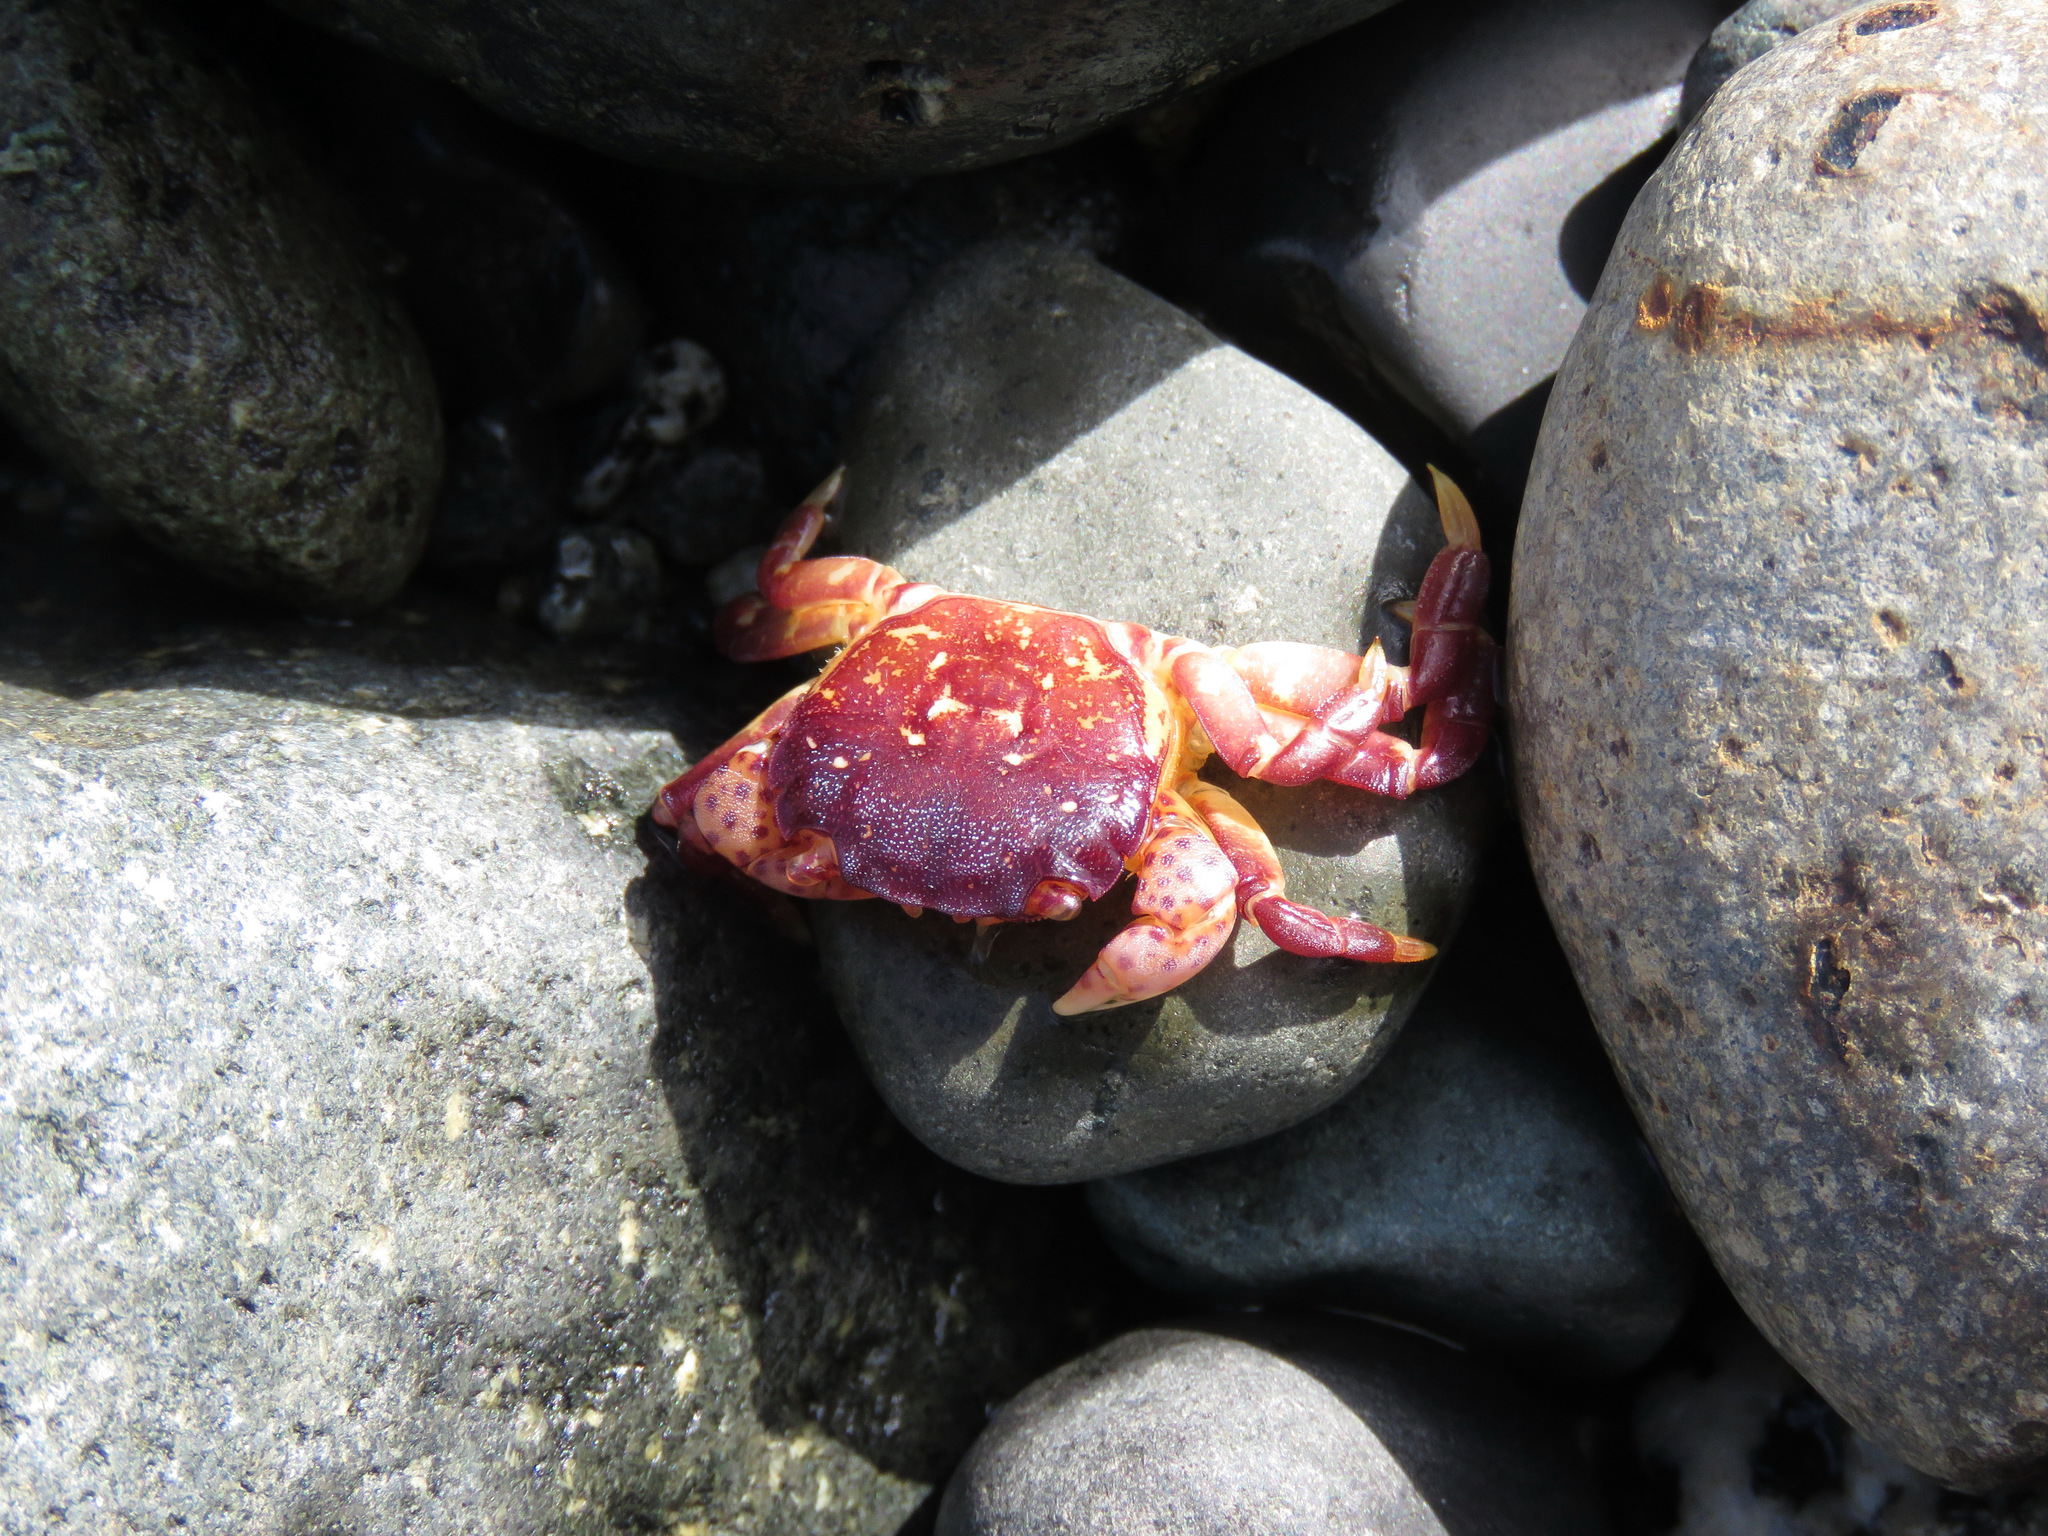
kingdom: Animalia
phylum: Arthropoda
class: Malacostraca
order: Decapoda
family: Varunidae
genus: Hemigrapsus
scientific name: Hemigrapsus nudus
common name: Purple shore crab
